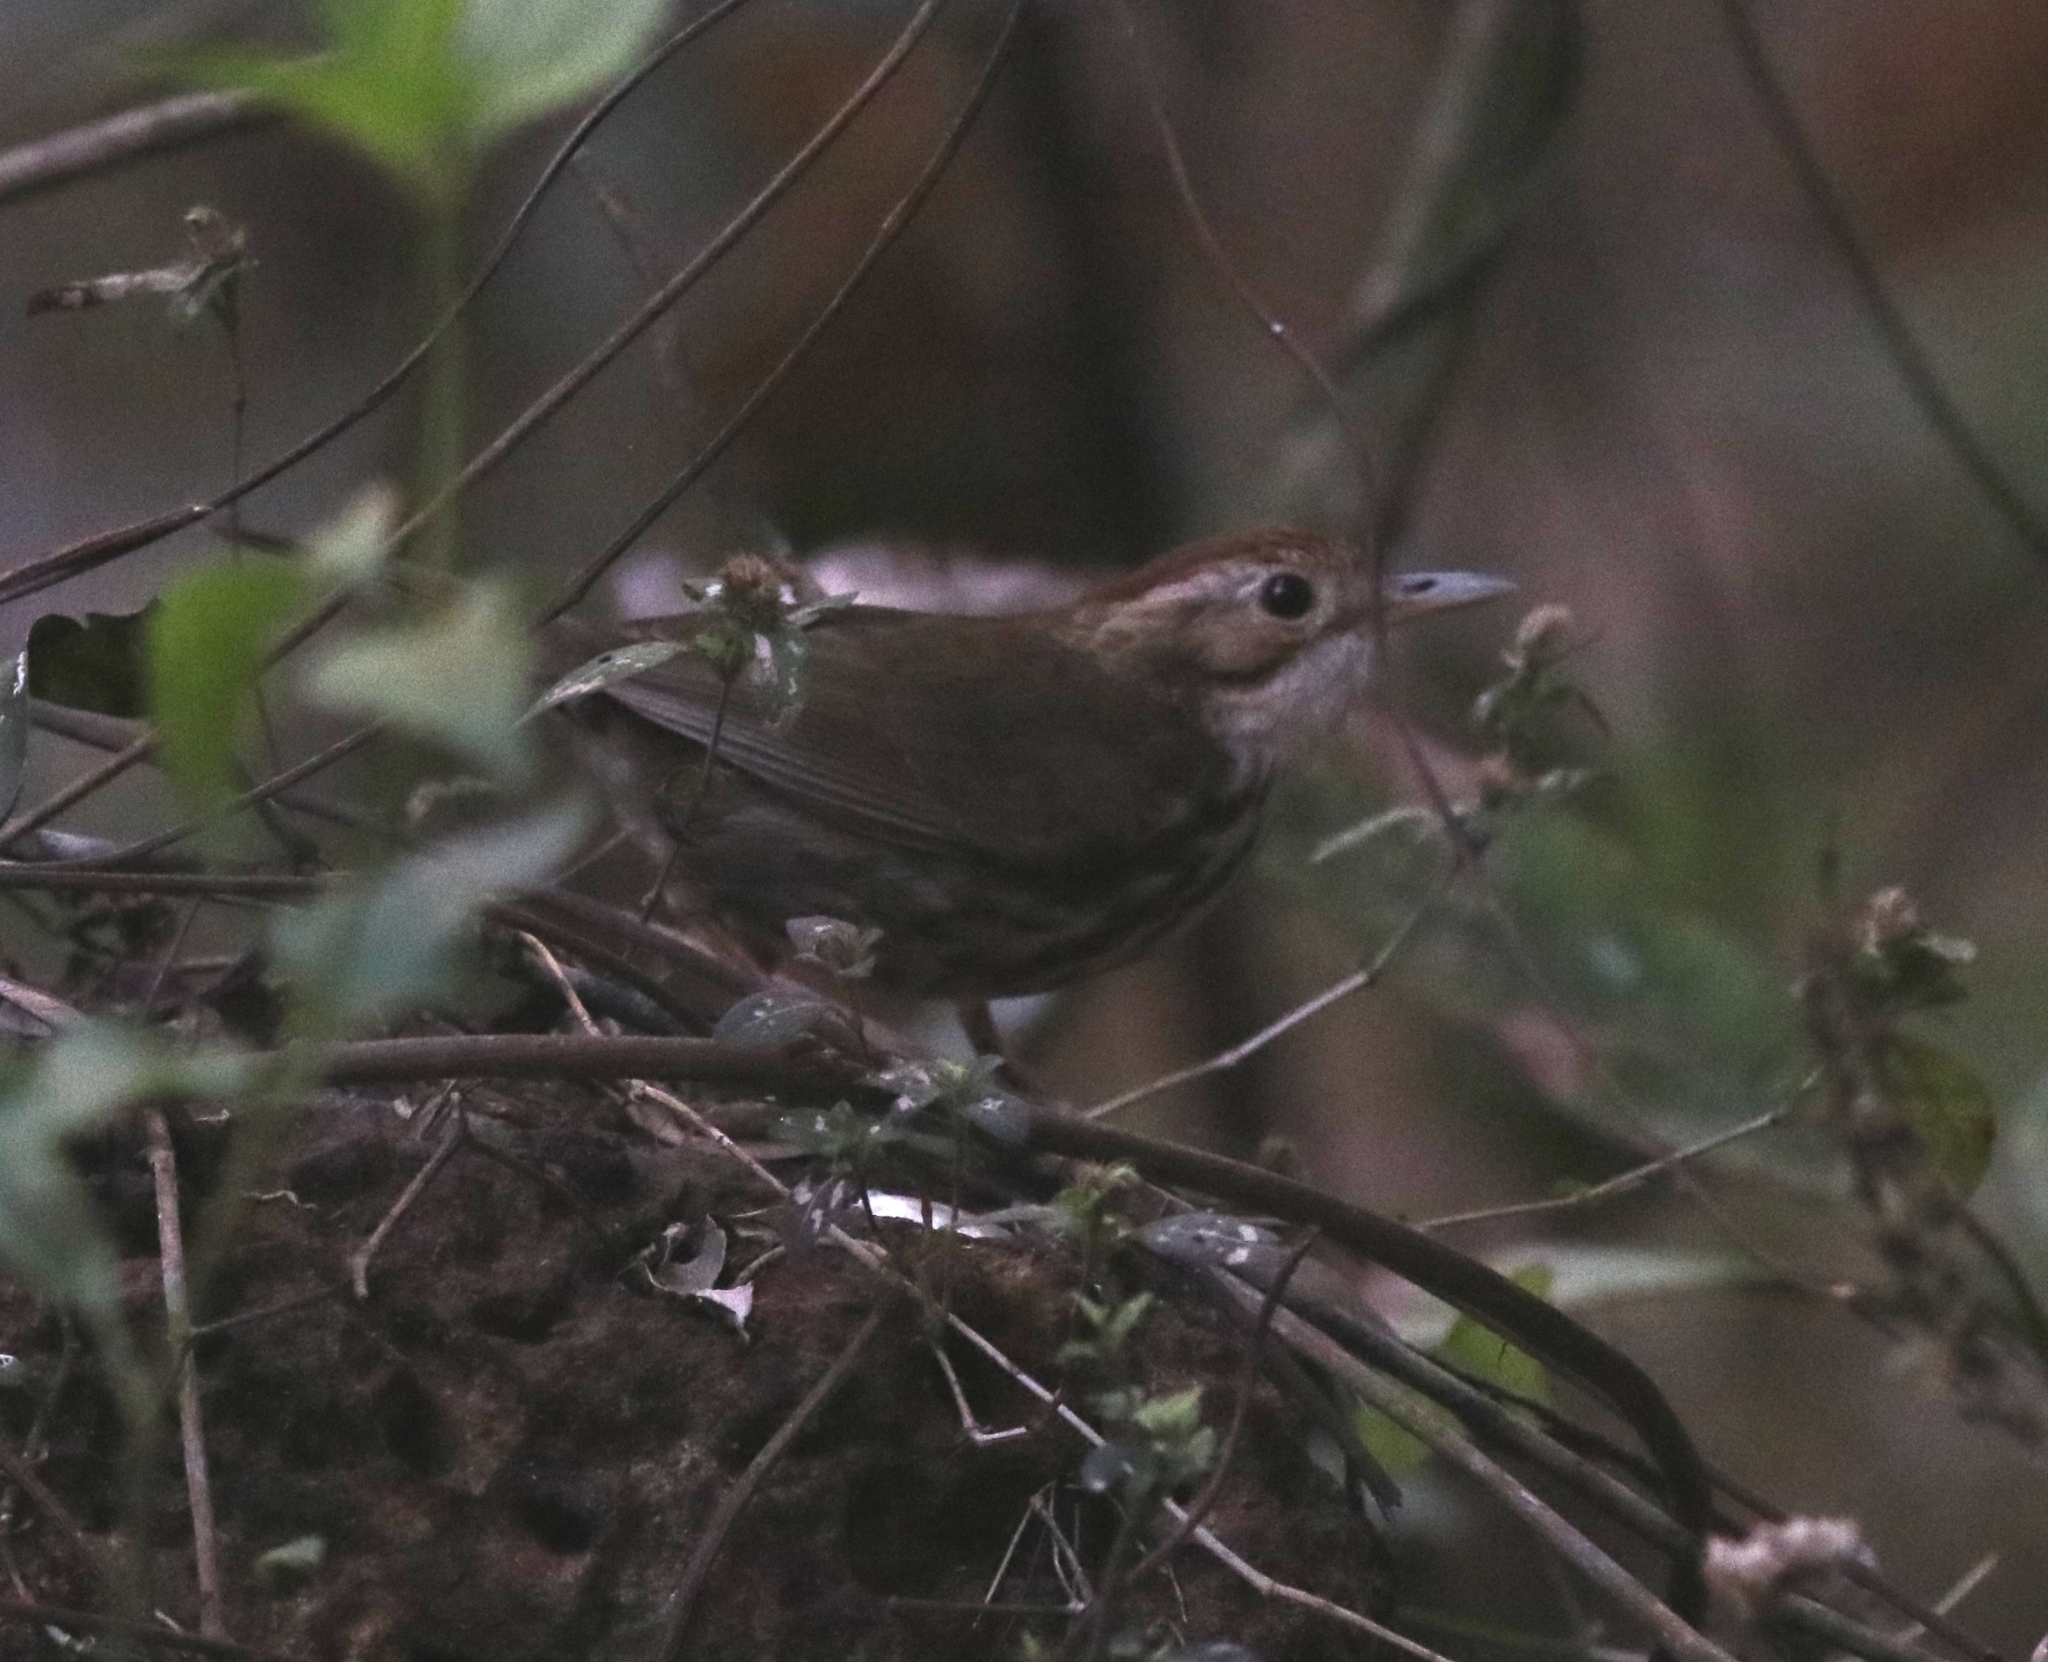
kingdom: Animalia
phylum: Chordata
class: Aves
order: Passeriformes
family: Pellorneidae
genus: Pellorneum
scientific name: Pellorneum ruficeps
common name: Puff-throated babbler
